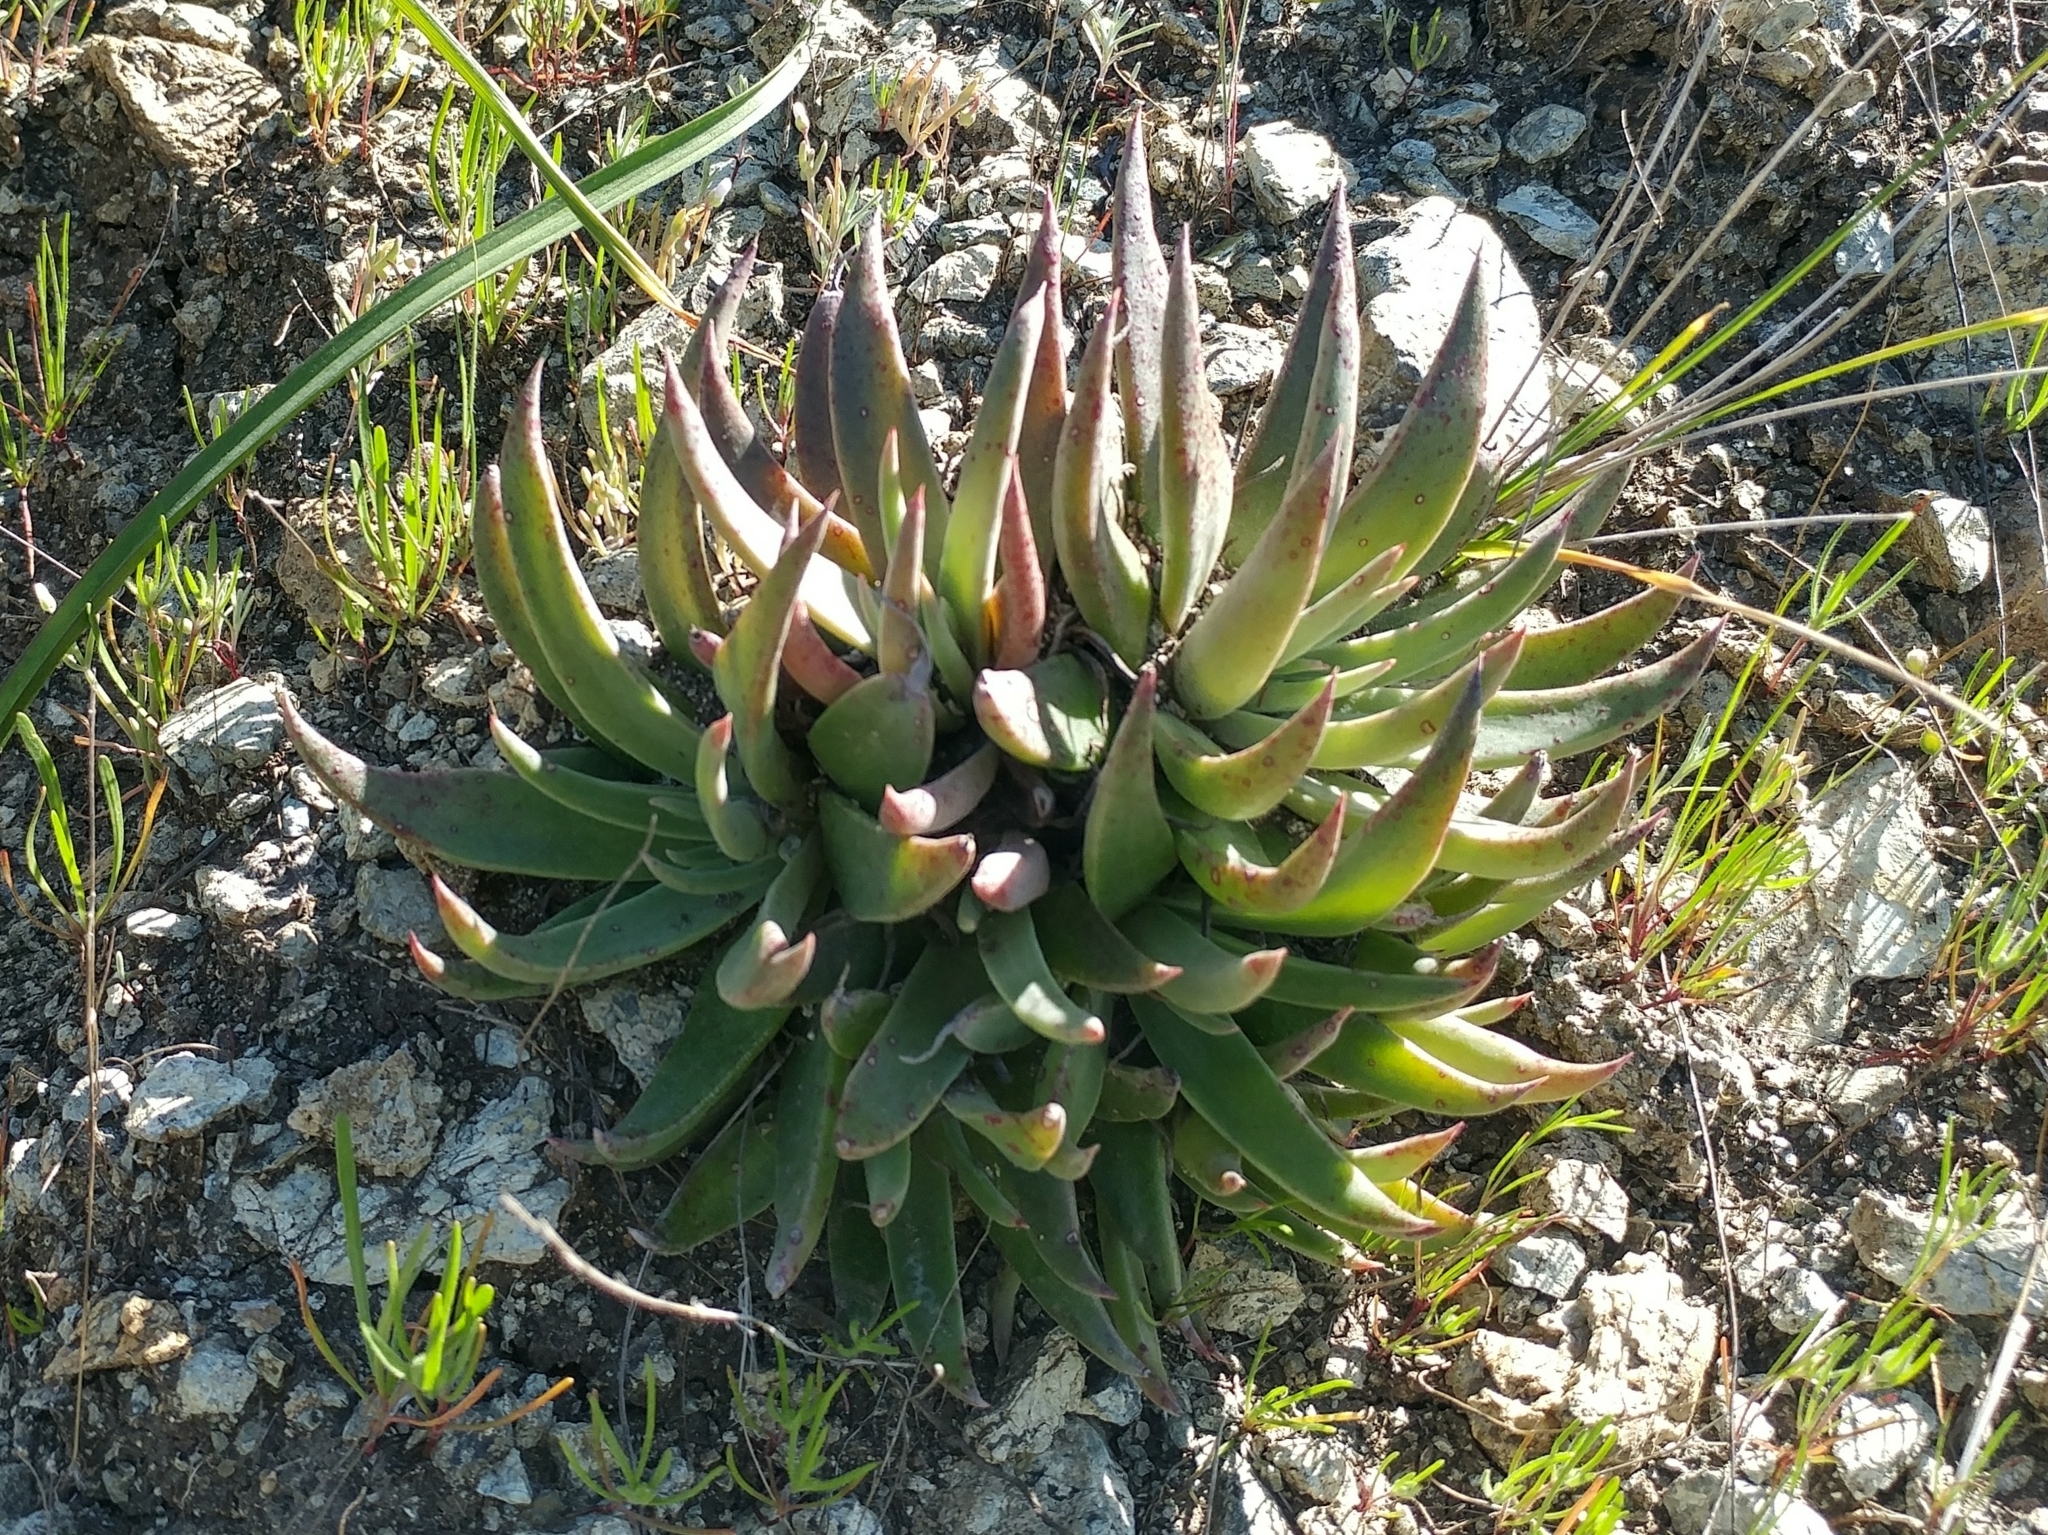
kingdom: Plantae
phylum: Tracheophyta
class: Magnoliopsida
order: Saxifragales
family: Crassulaceae
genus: Dudleya
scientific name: Dudleya lanceolata
